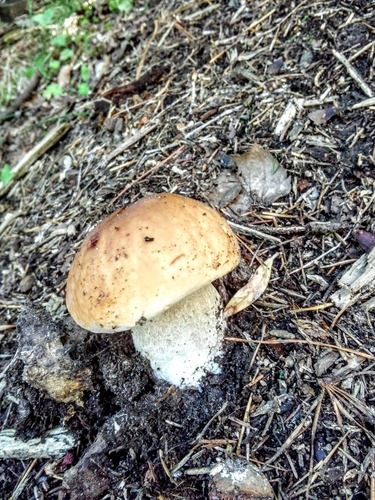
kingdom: Fungi
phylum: Basidiomycota
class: Agaricomycetes
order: Boletales
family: Boletaceae
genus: Boletus
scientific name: Boletus edulis
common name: Cep
